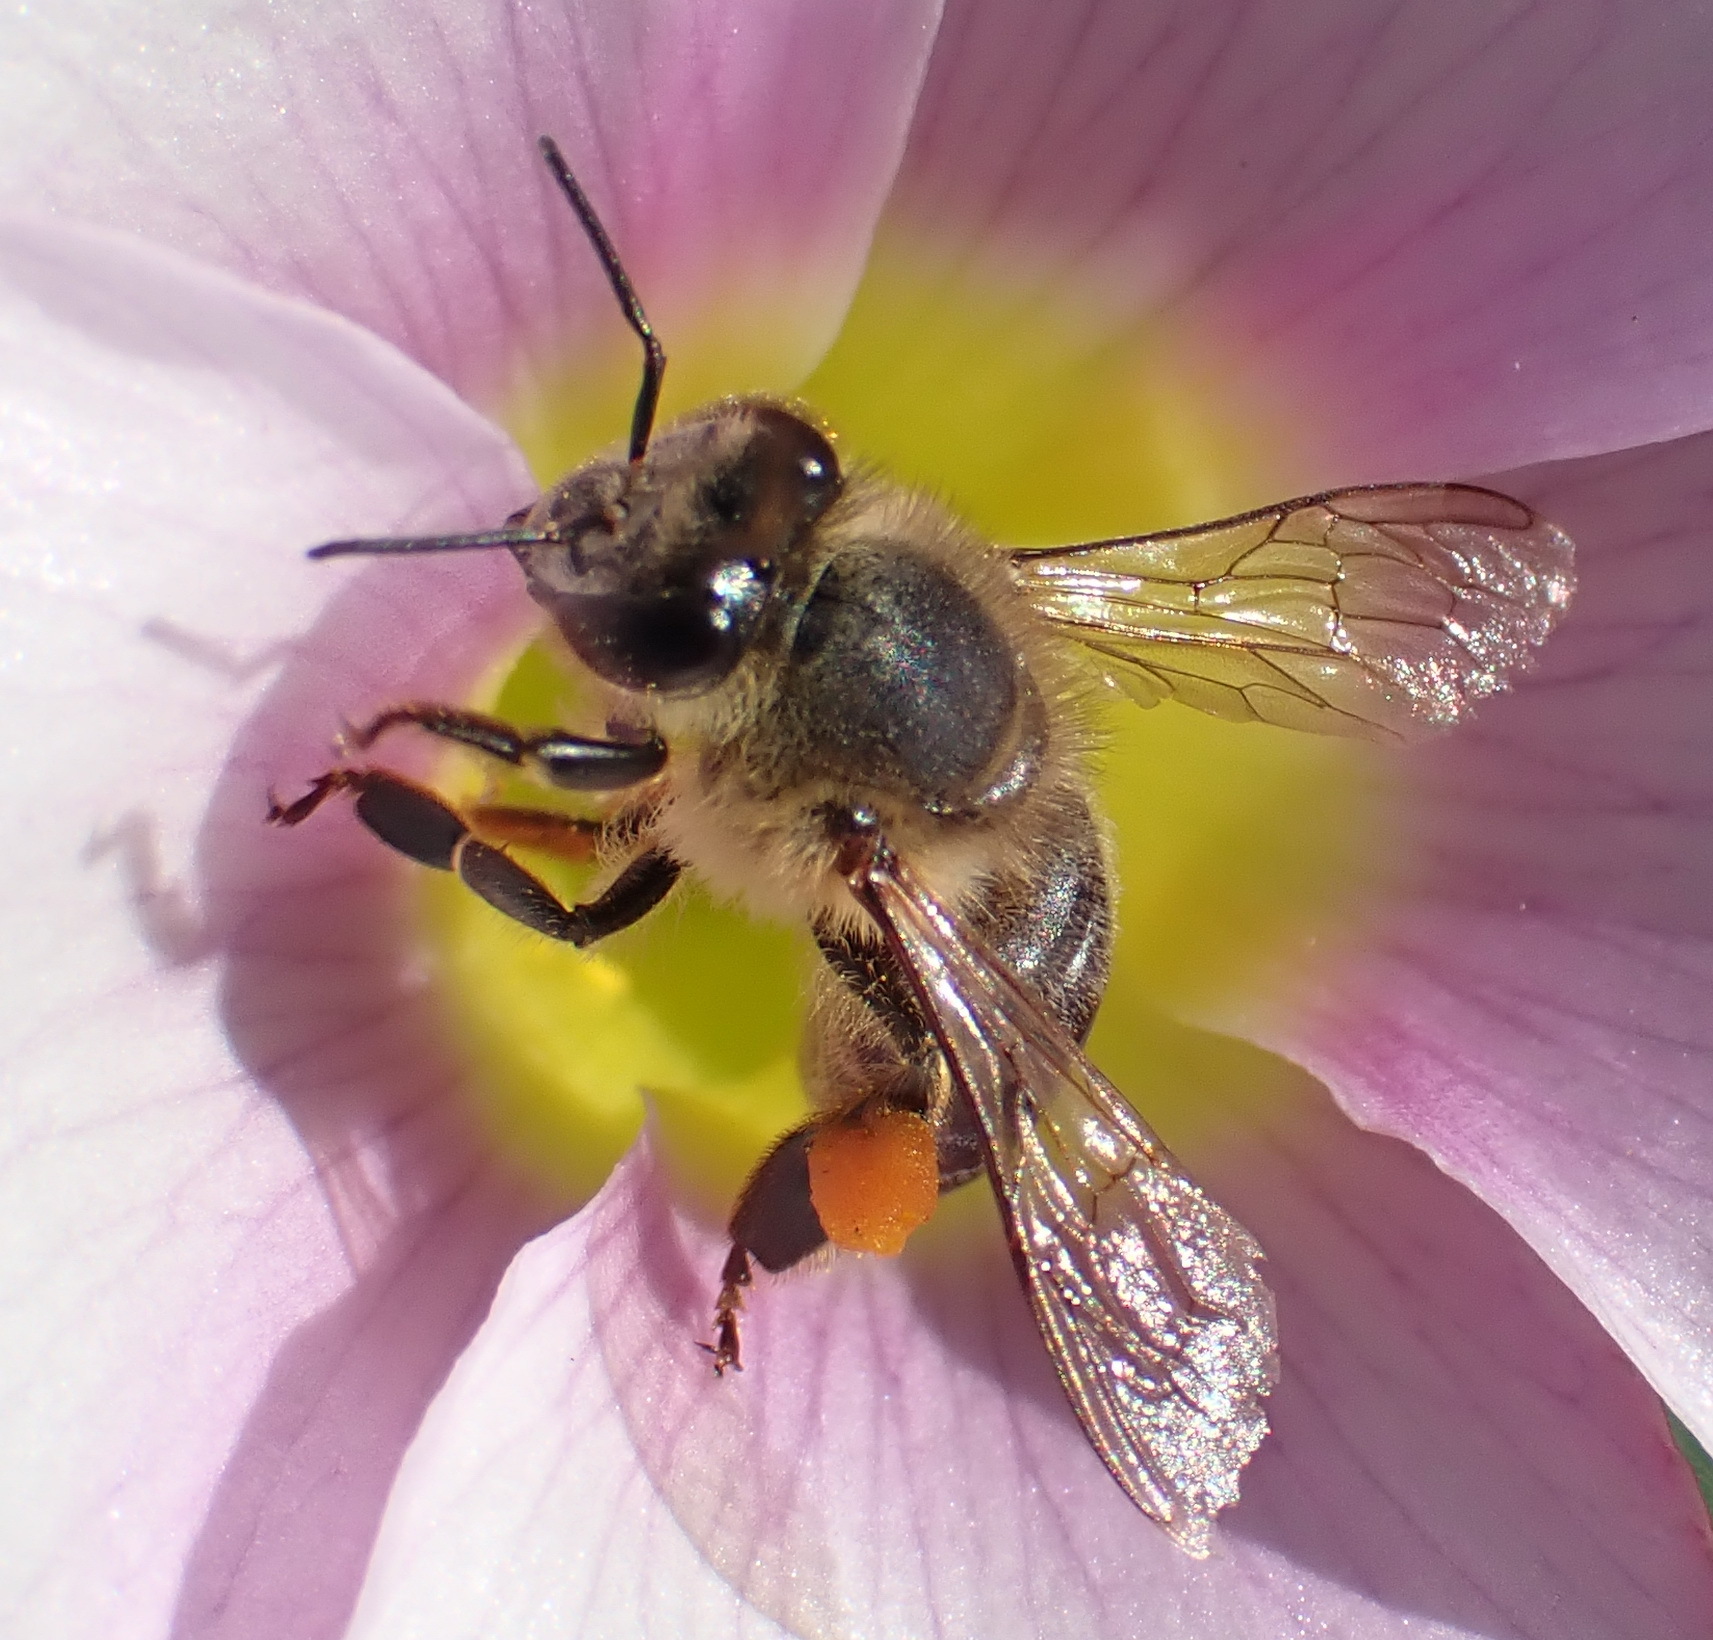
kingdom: Animalia
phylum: Arthropoda
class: Insecta
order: Hymenoptera
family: Apidae
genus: Apis
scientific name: Apis mellifera
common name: Honey bee
